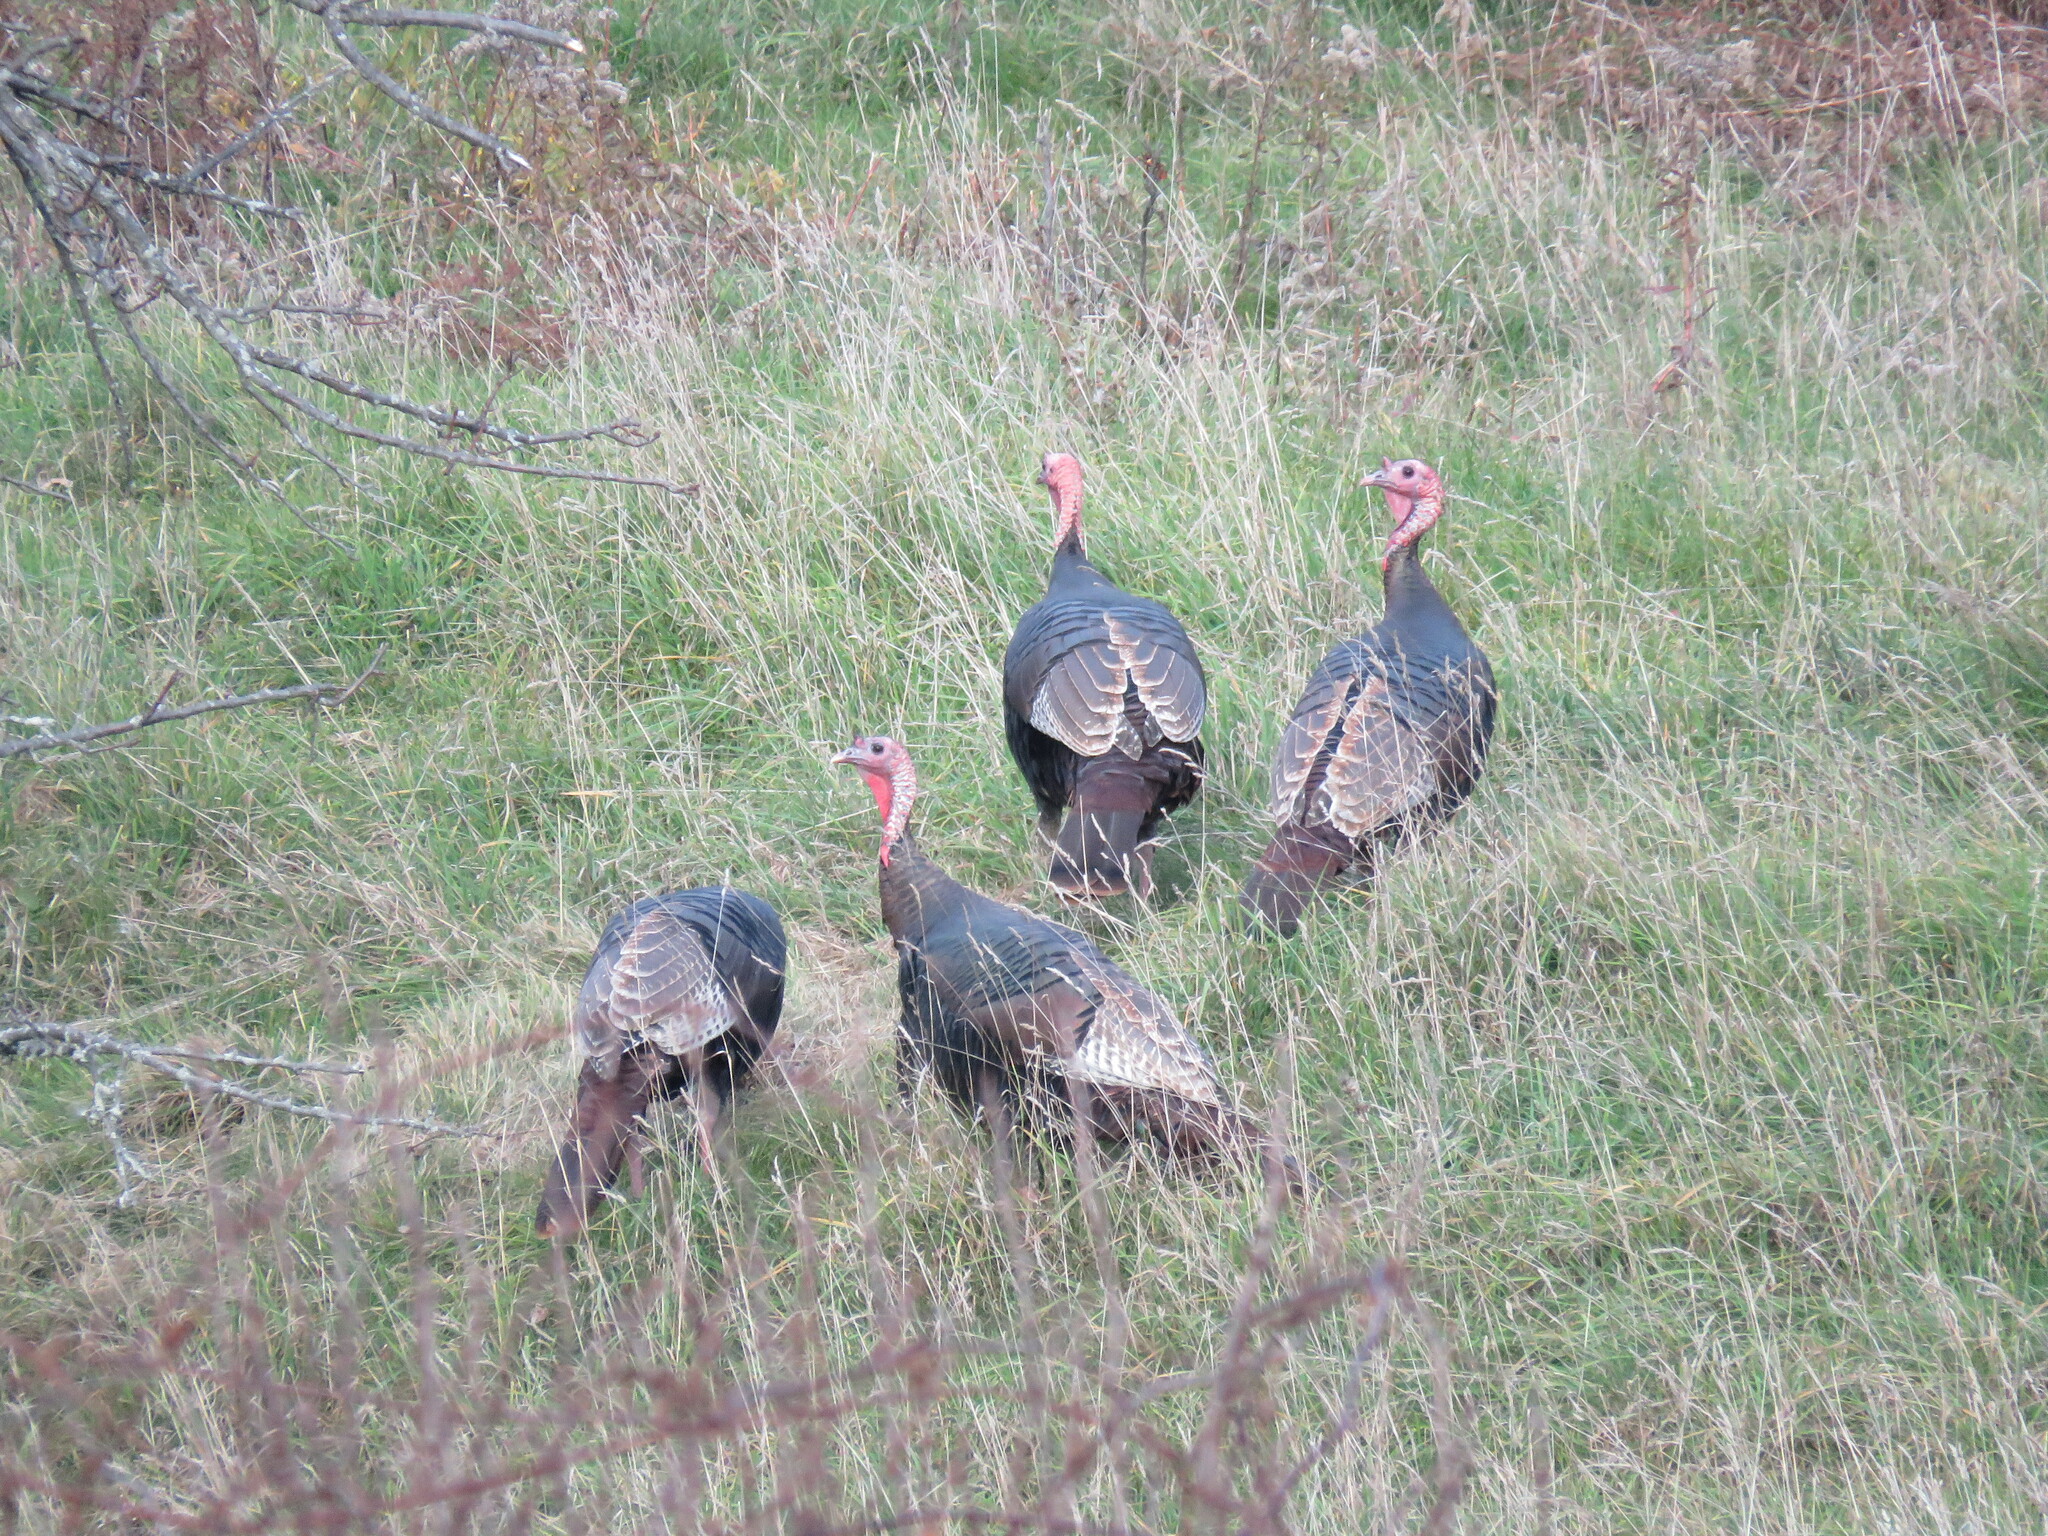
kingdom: Animalia
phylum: Chordata
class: Aves
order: Galliformes
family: Phasianidae
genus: Meleagris
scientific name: Meleagris gallopavo
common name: Wild turkey
